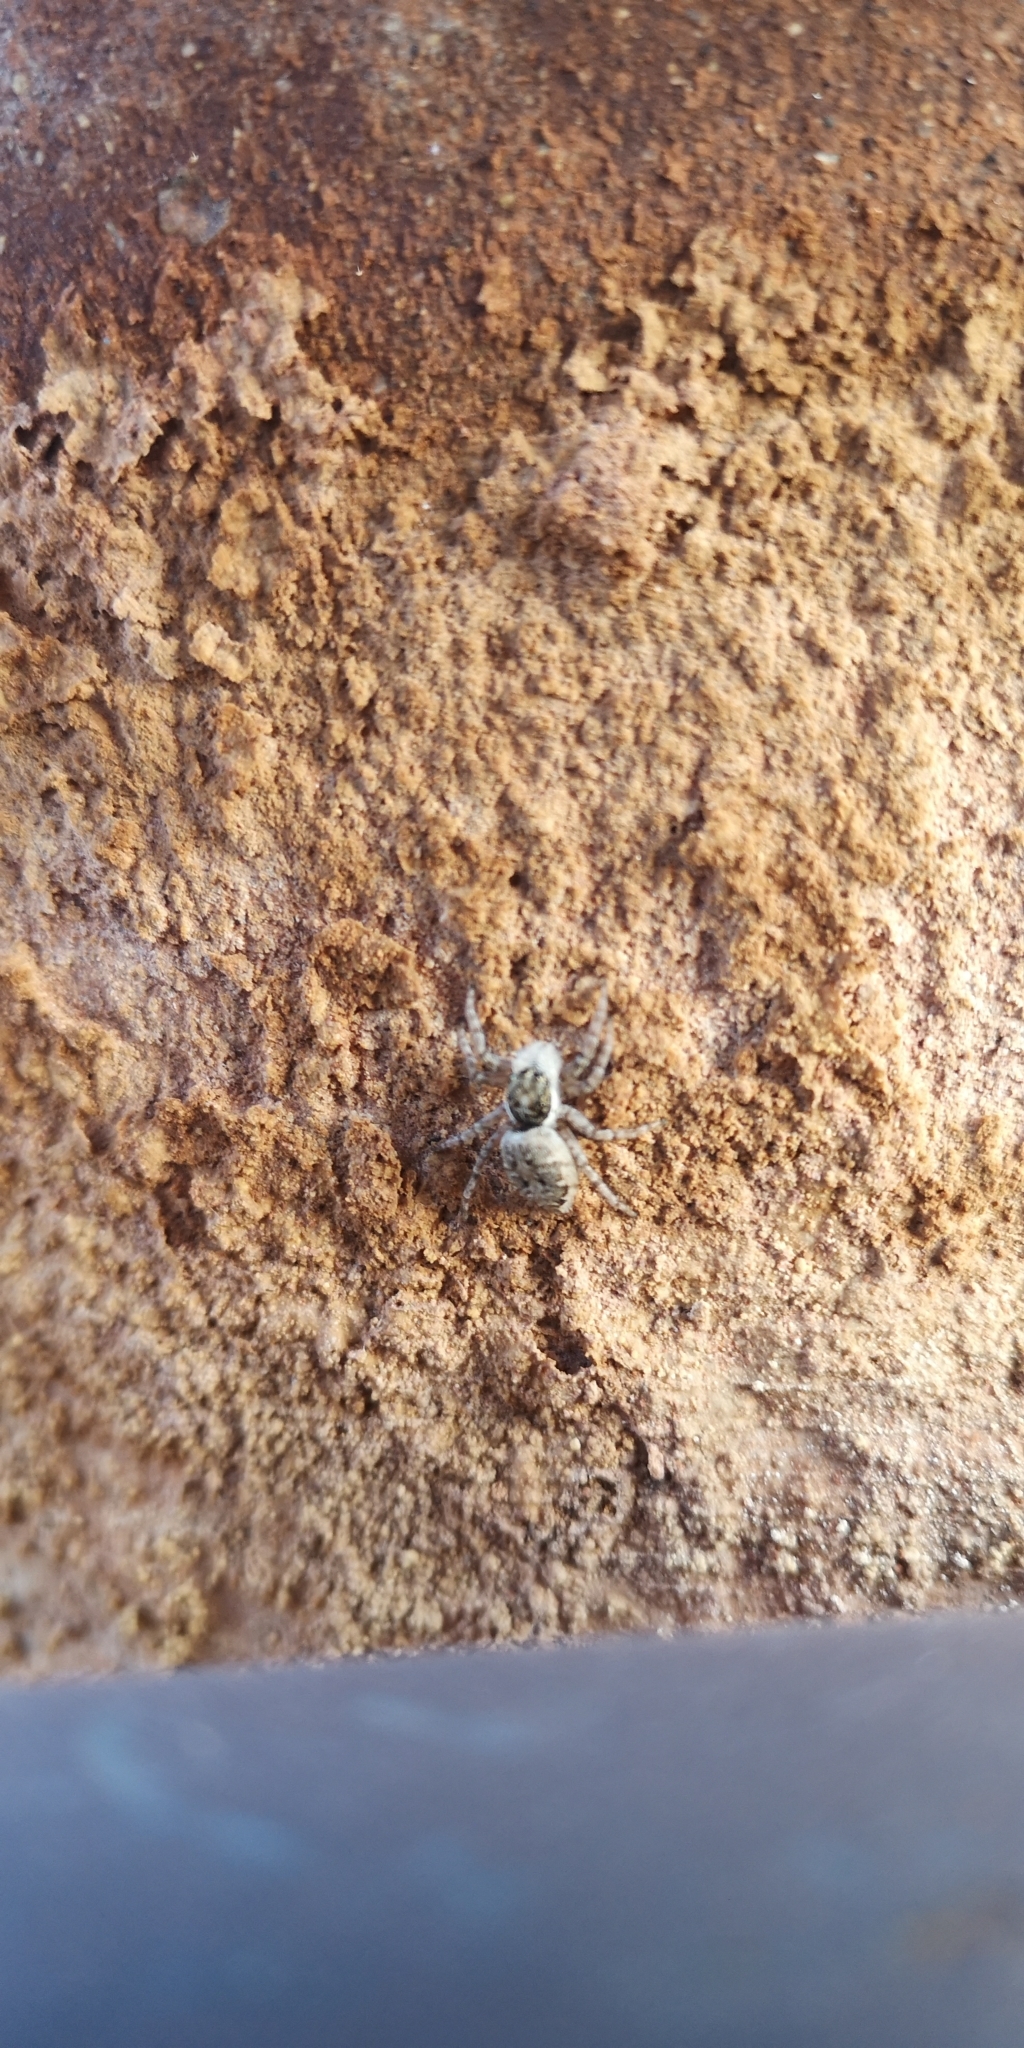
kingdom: Animalia
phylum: Arthropoda
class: Arachnida
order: Araneae
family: Salticidae
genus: Menemerus
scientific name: Menemerus semilimbatus
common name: Jumping spider
